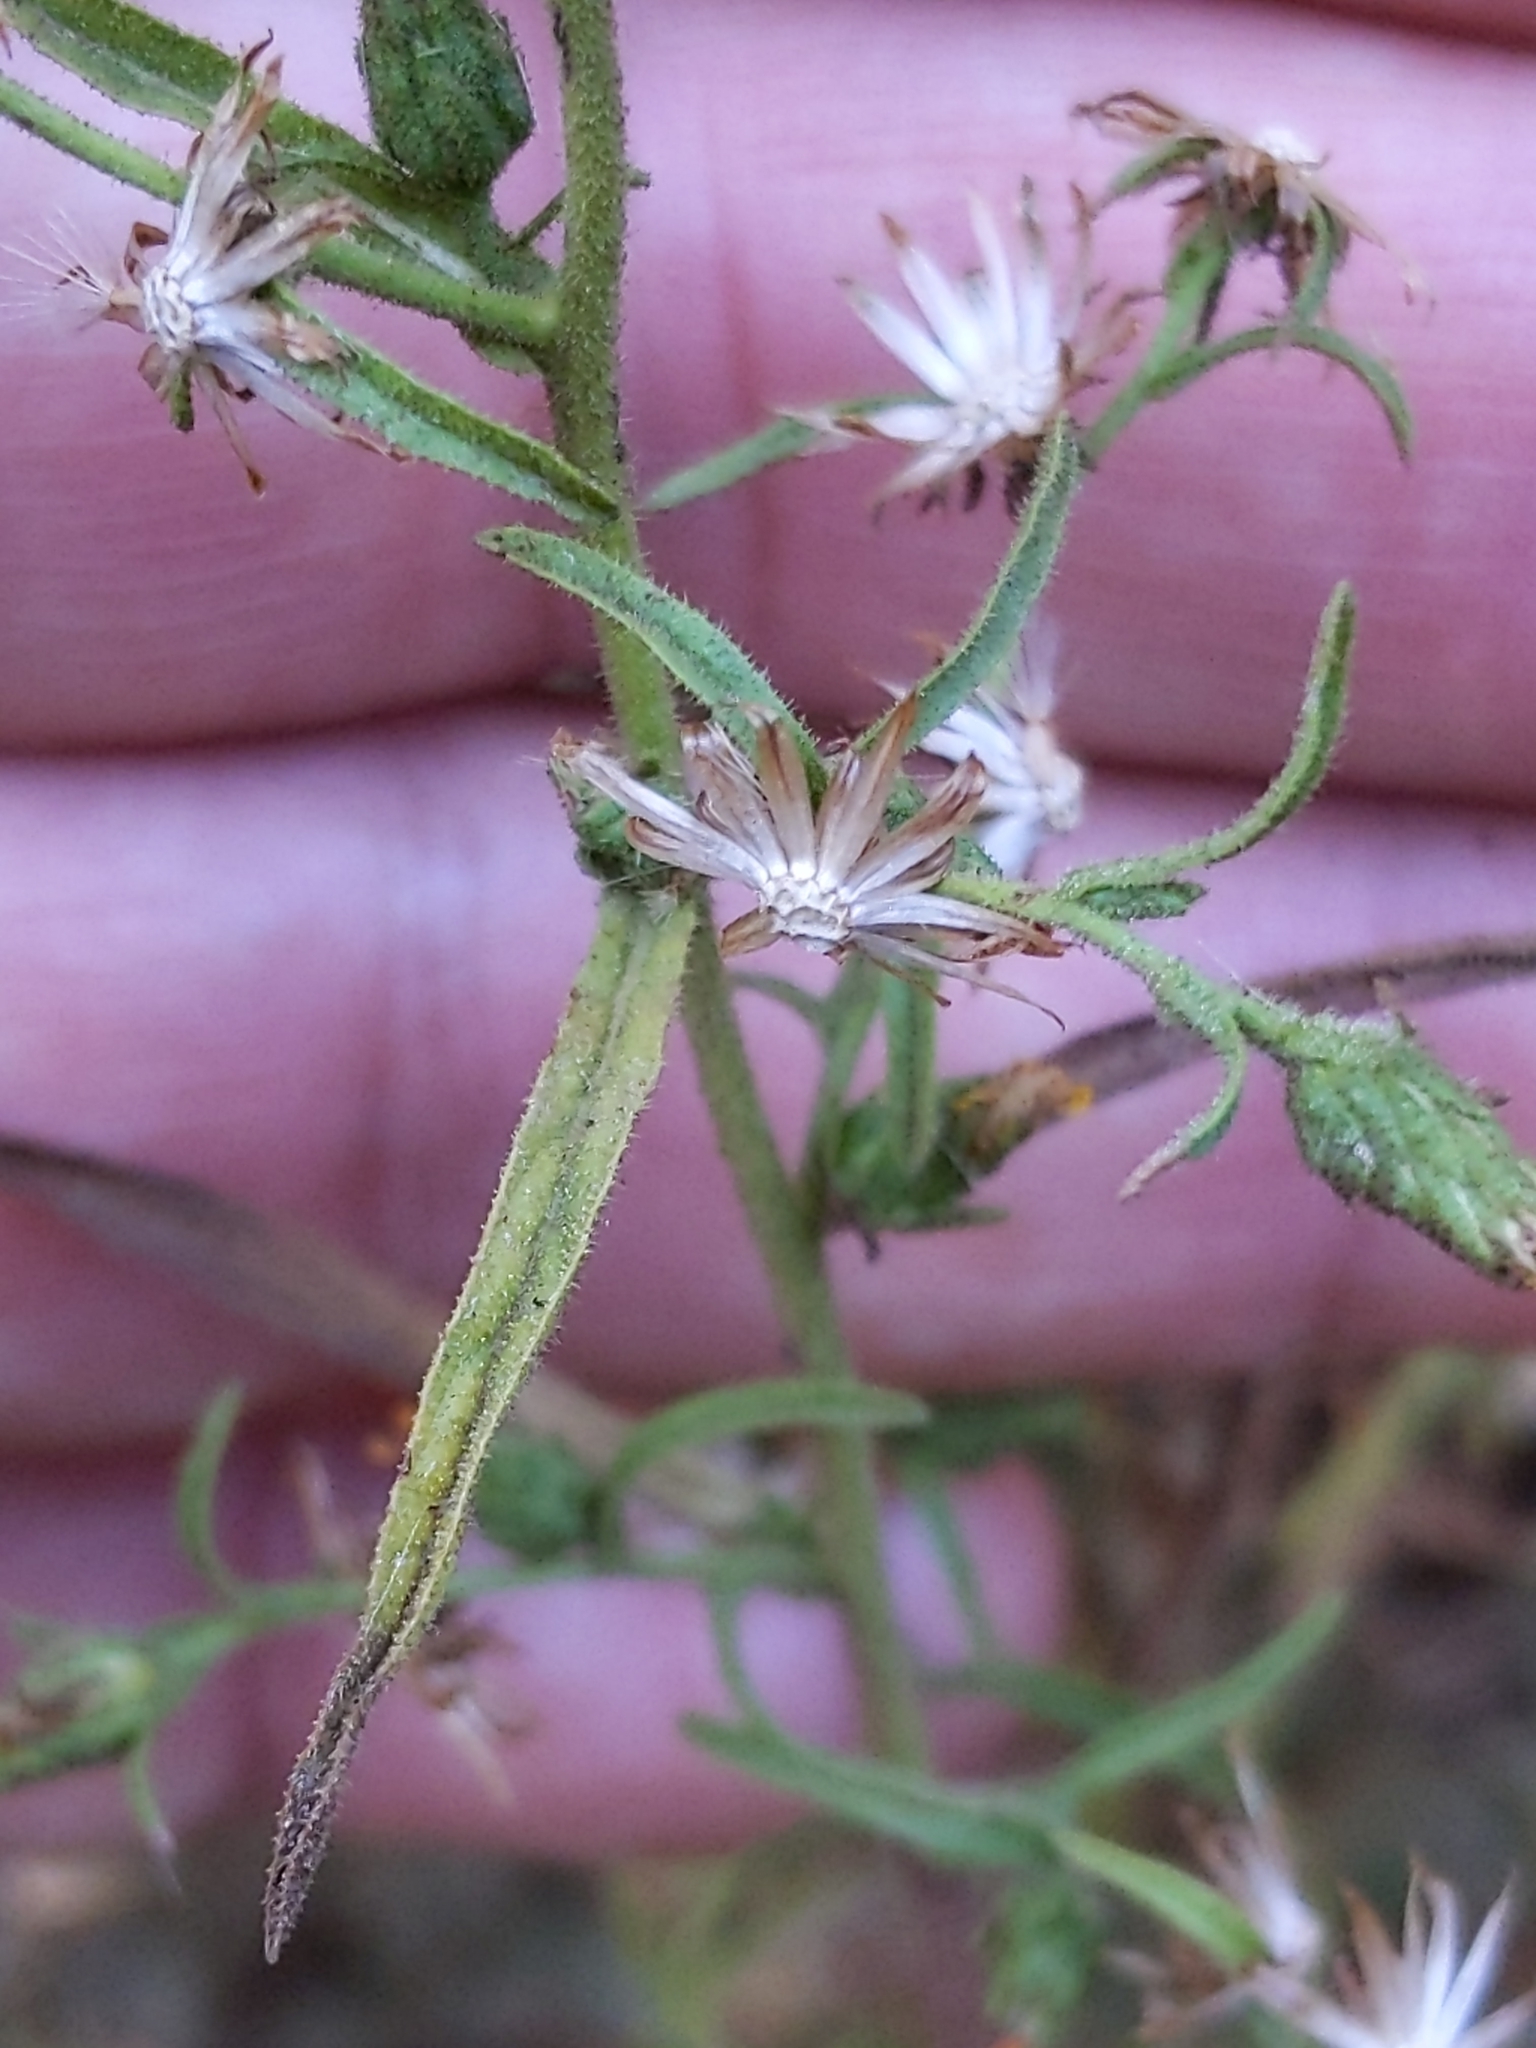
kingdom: Plantae
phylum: Tracheophyta
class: Magnoliopsida
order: Asterales
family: Asteraceae
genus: Dittrichia
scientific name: Dittrichia graveolens
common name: Stinking fleabane
